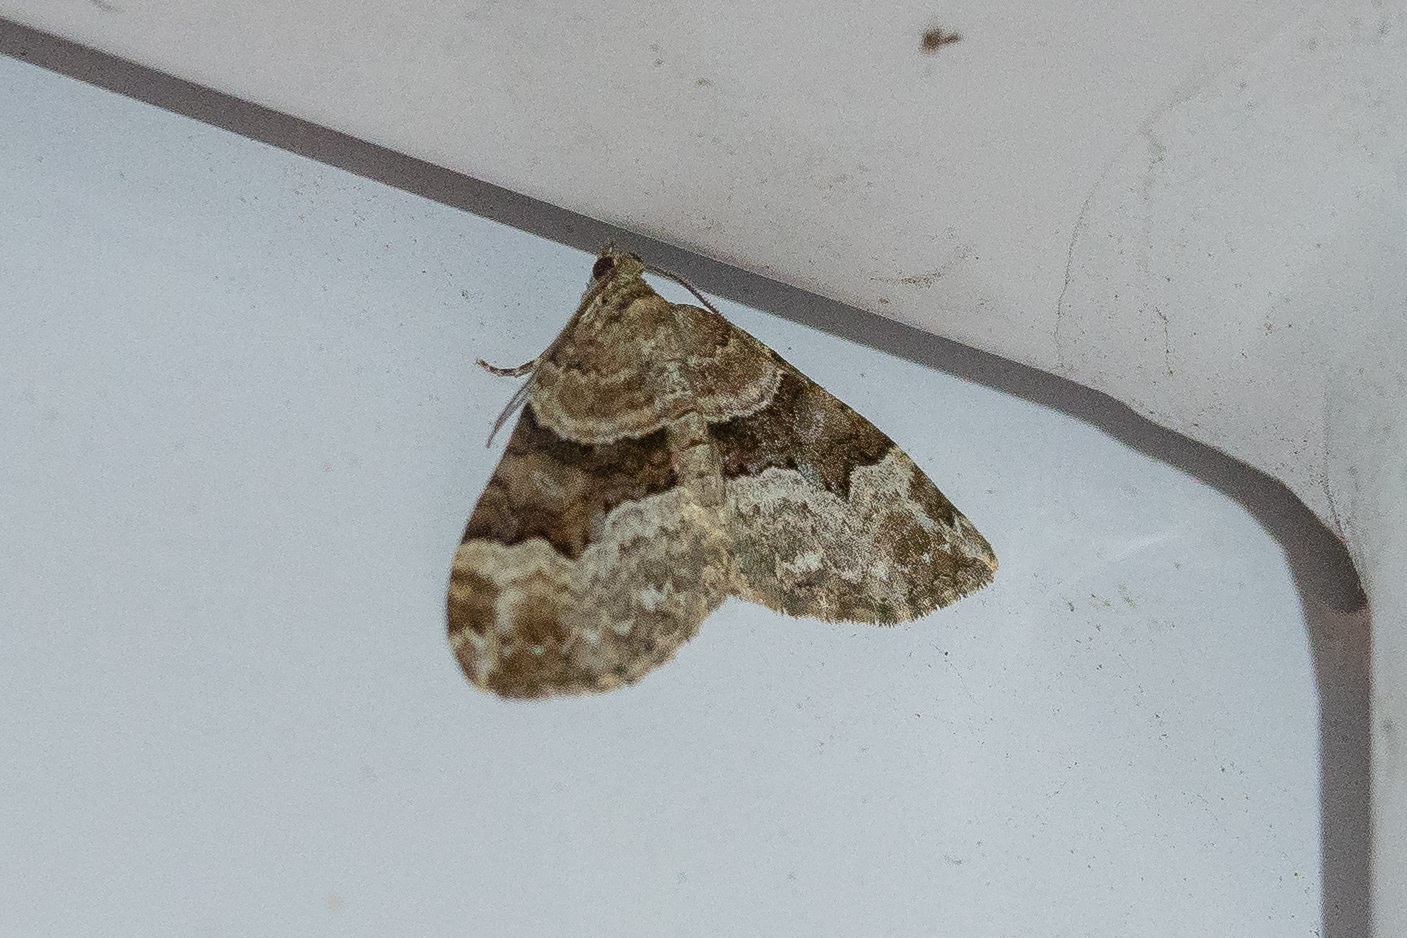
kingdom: Animalia
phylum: Arthropoda
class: Insecta
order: Lepidoptera
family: Geometridae
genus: Xanthorhoe
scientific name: Xanthorhoe lacustrata
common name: Toothed brown carpet
